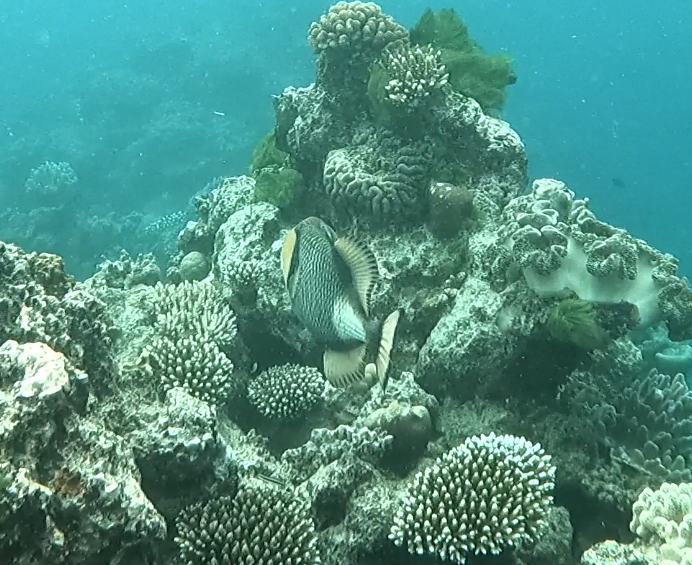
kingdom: Animalia
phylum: Chordata
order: Tetraodontiformes
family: Balistidae
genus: Balistoides
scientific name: Balistoides viridescens
